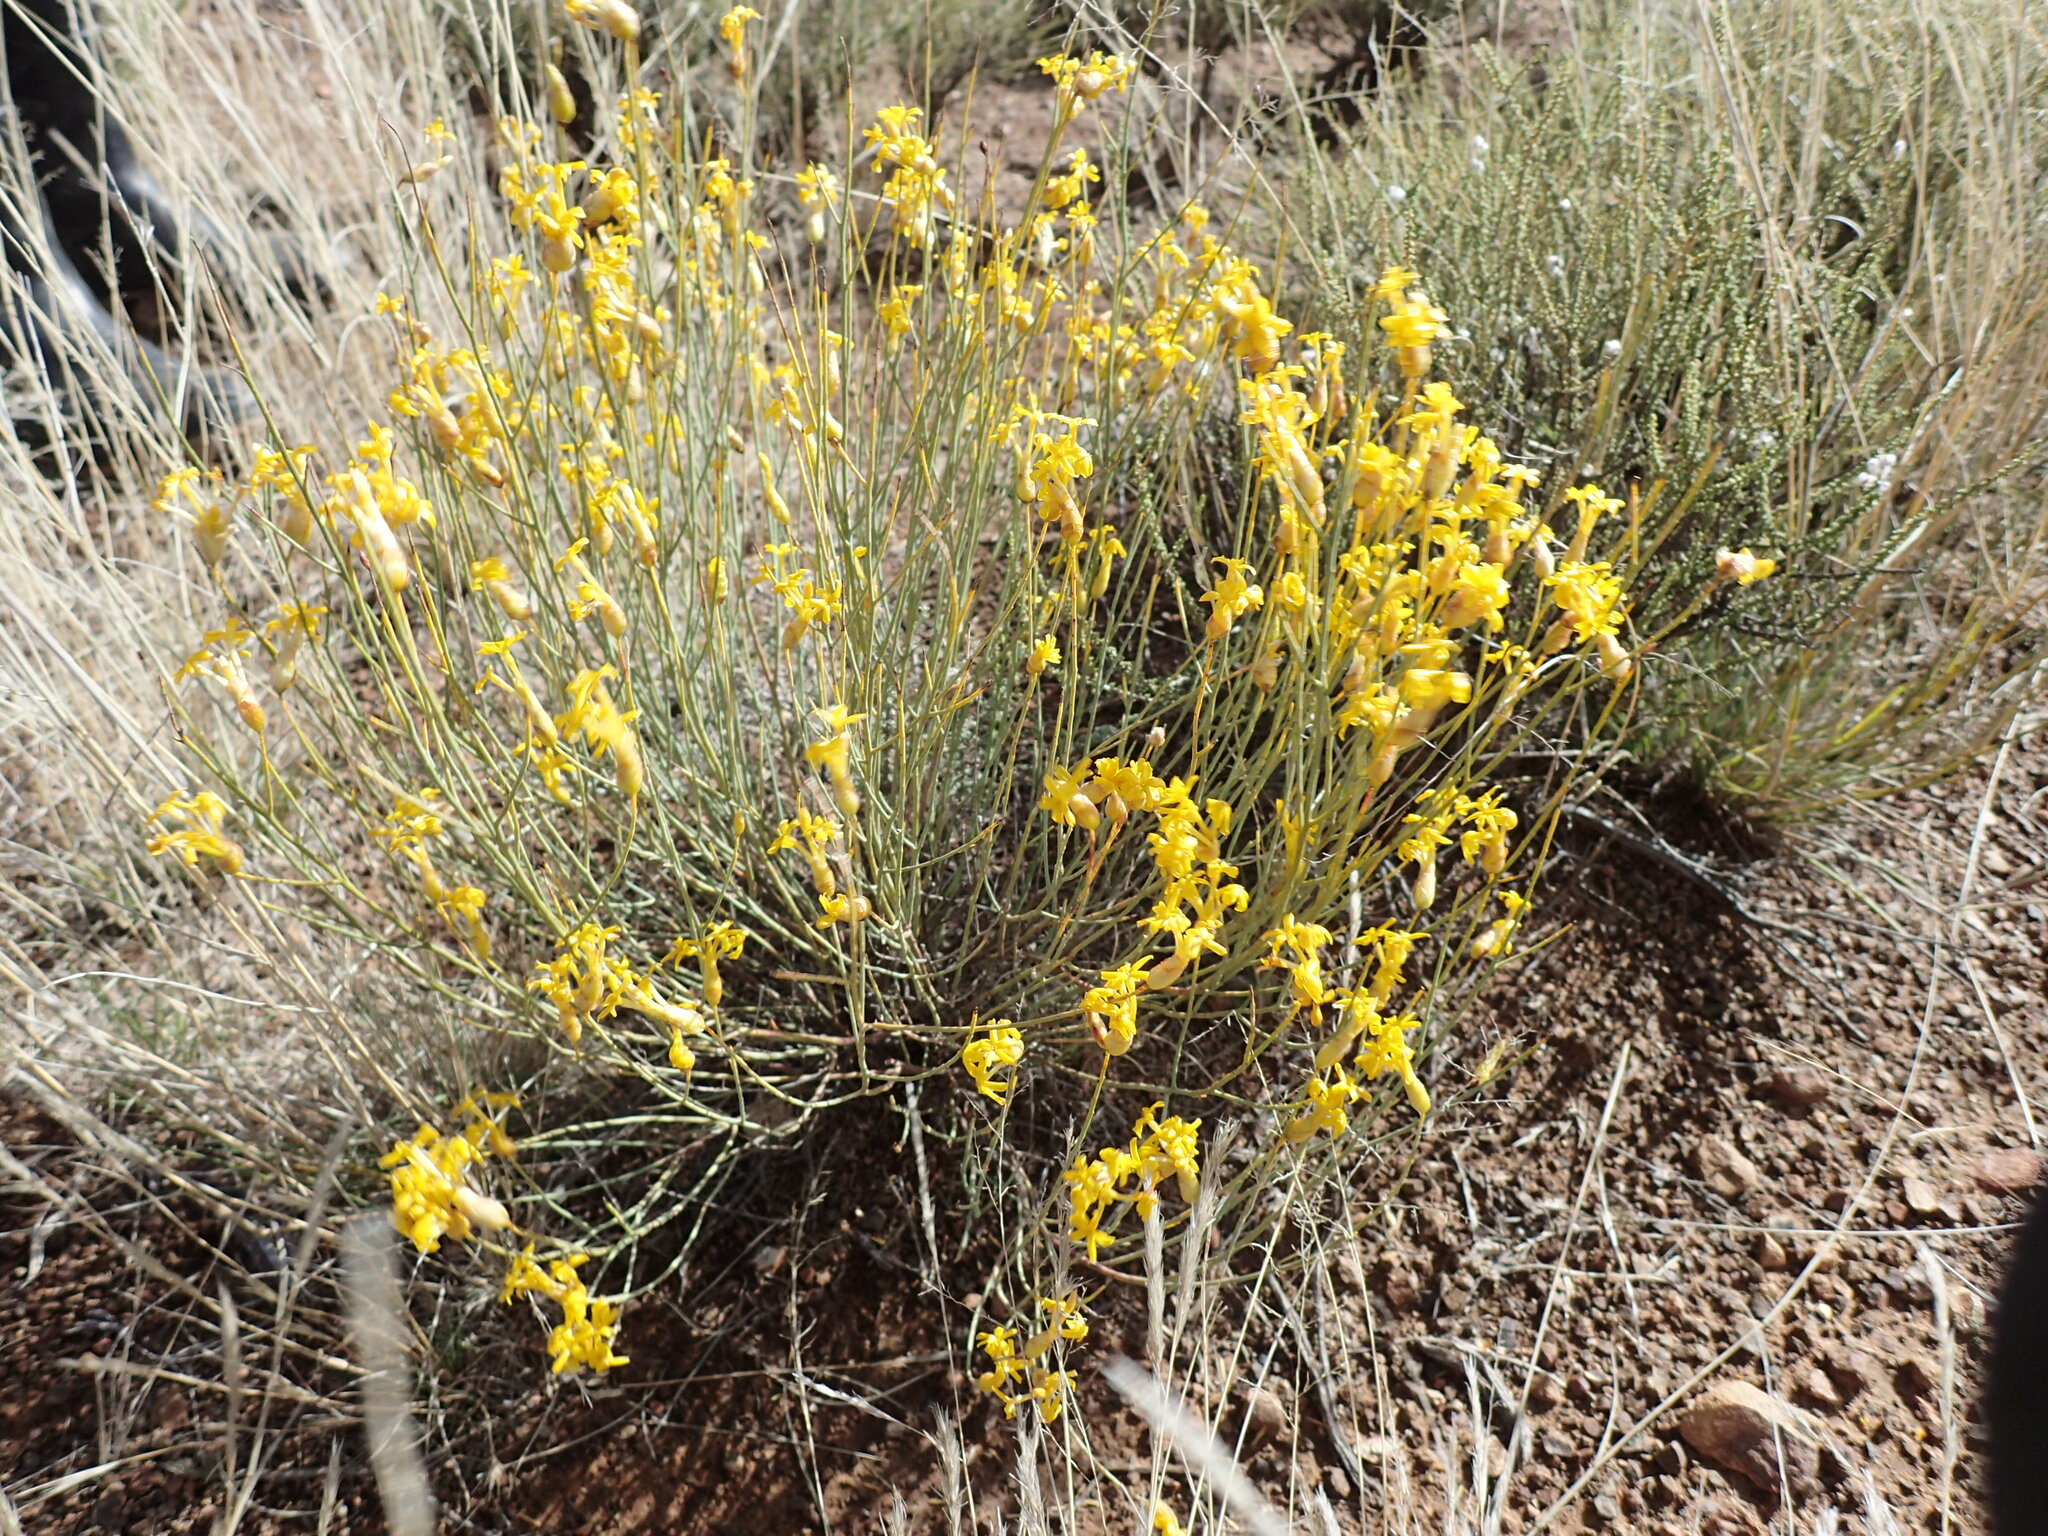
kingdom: Plantae
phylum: Tracheophyta
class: Magnoliopsida
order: Malvales
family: Thymelaeaceae
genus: Gnidia
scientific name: Gnidia polycephala
